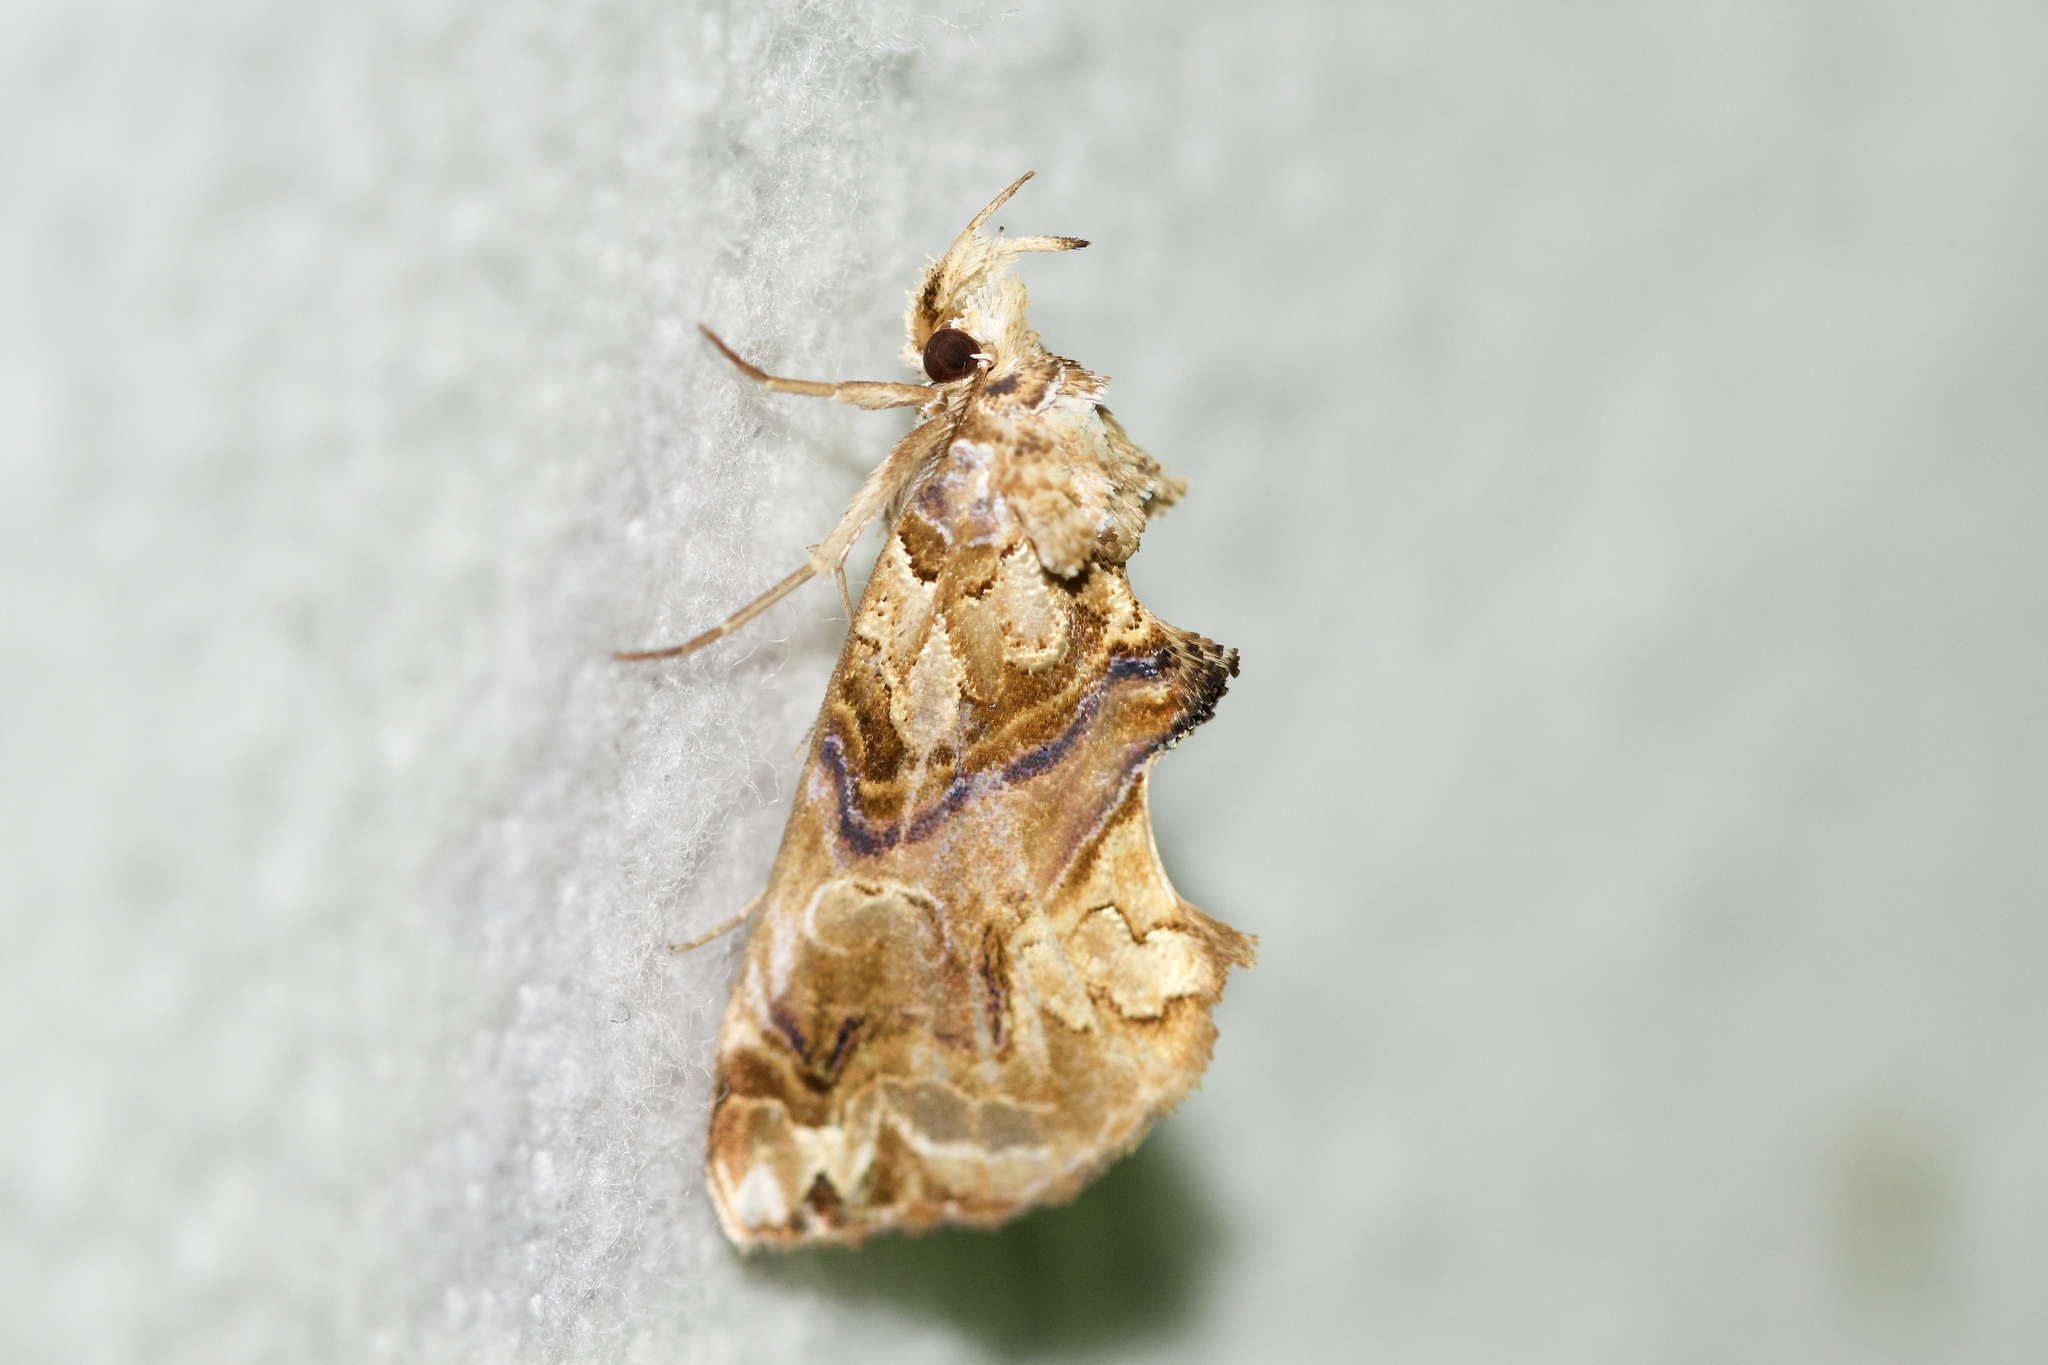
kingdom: Animalia
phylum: Arthropoda
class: Insecta
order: Lepidoptera
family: Erebidae
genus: Plusiodonta
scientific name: Plusiodonta compressipalpis
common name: Moonseed moth
